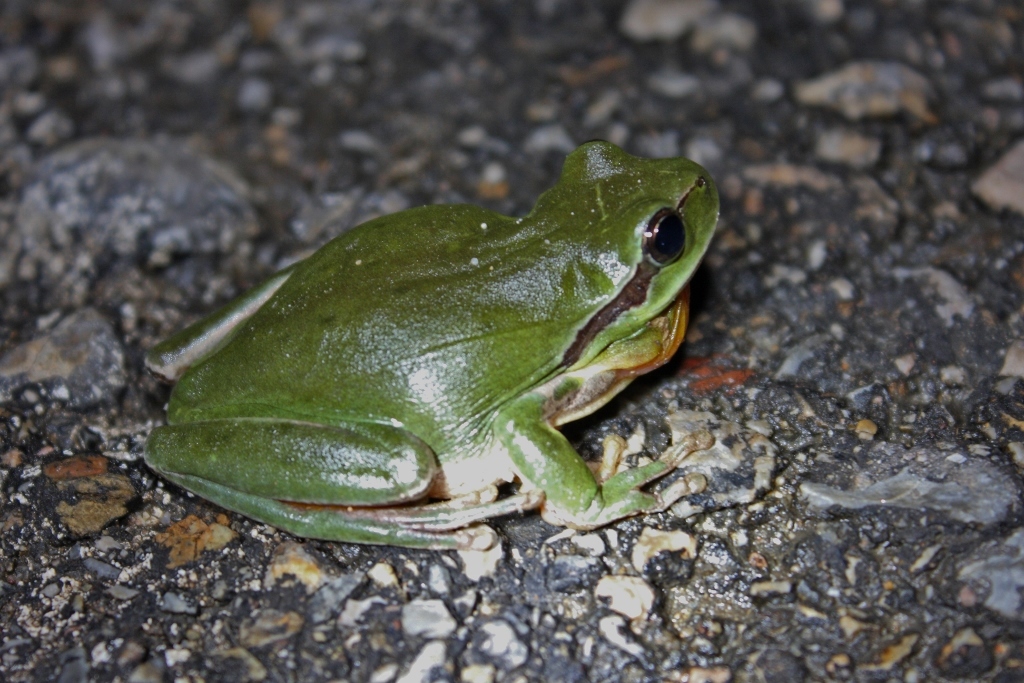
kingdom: Animalia
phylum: Chordata
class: Amphibia
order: Anura
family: Hylidae
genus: Hyla
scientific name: Hyla meridionalis
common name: Stripeless tree frog
